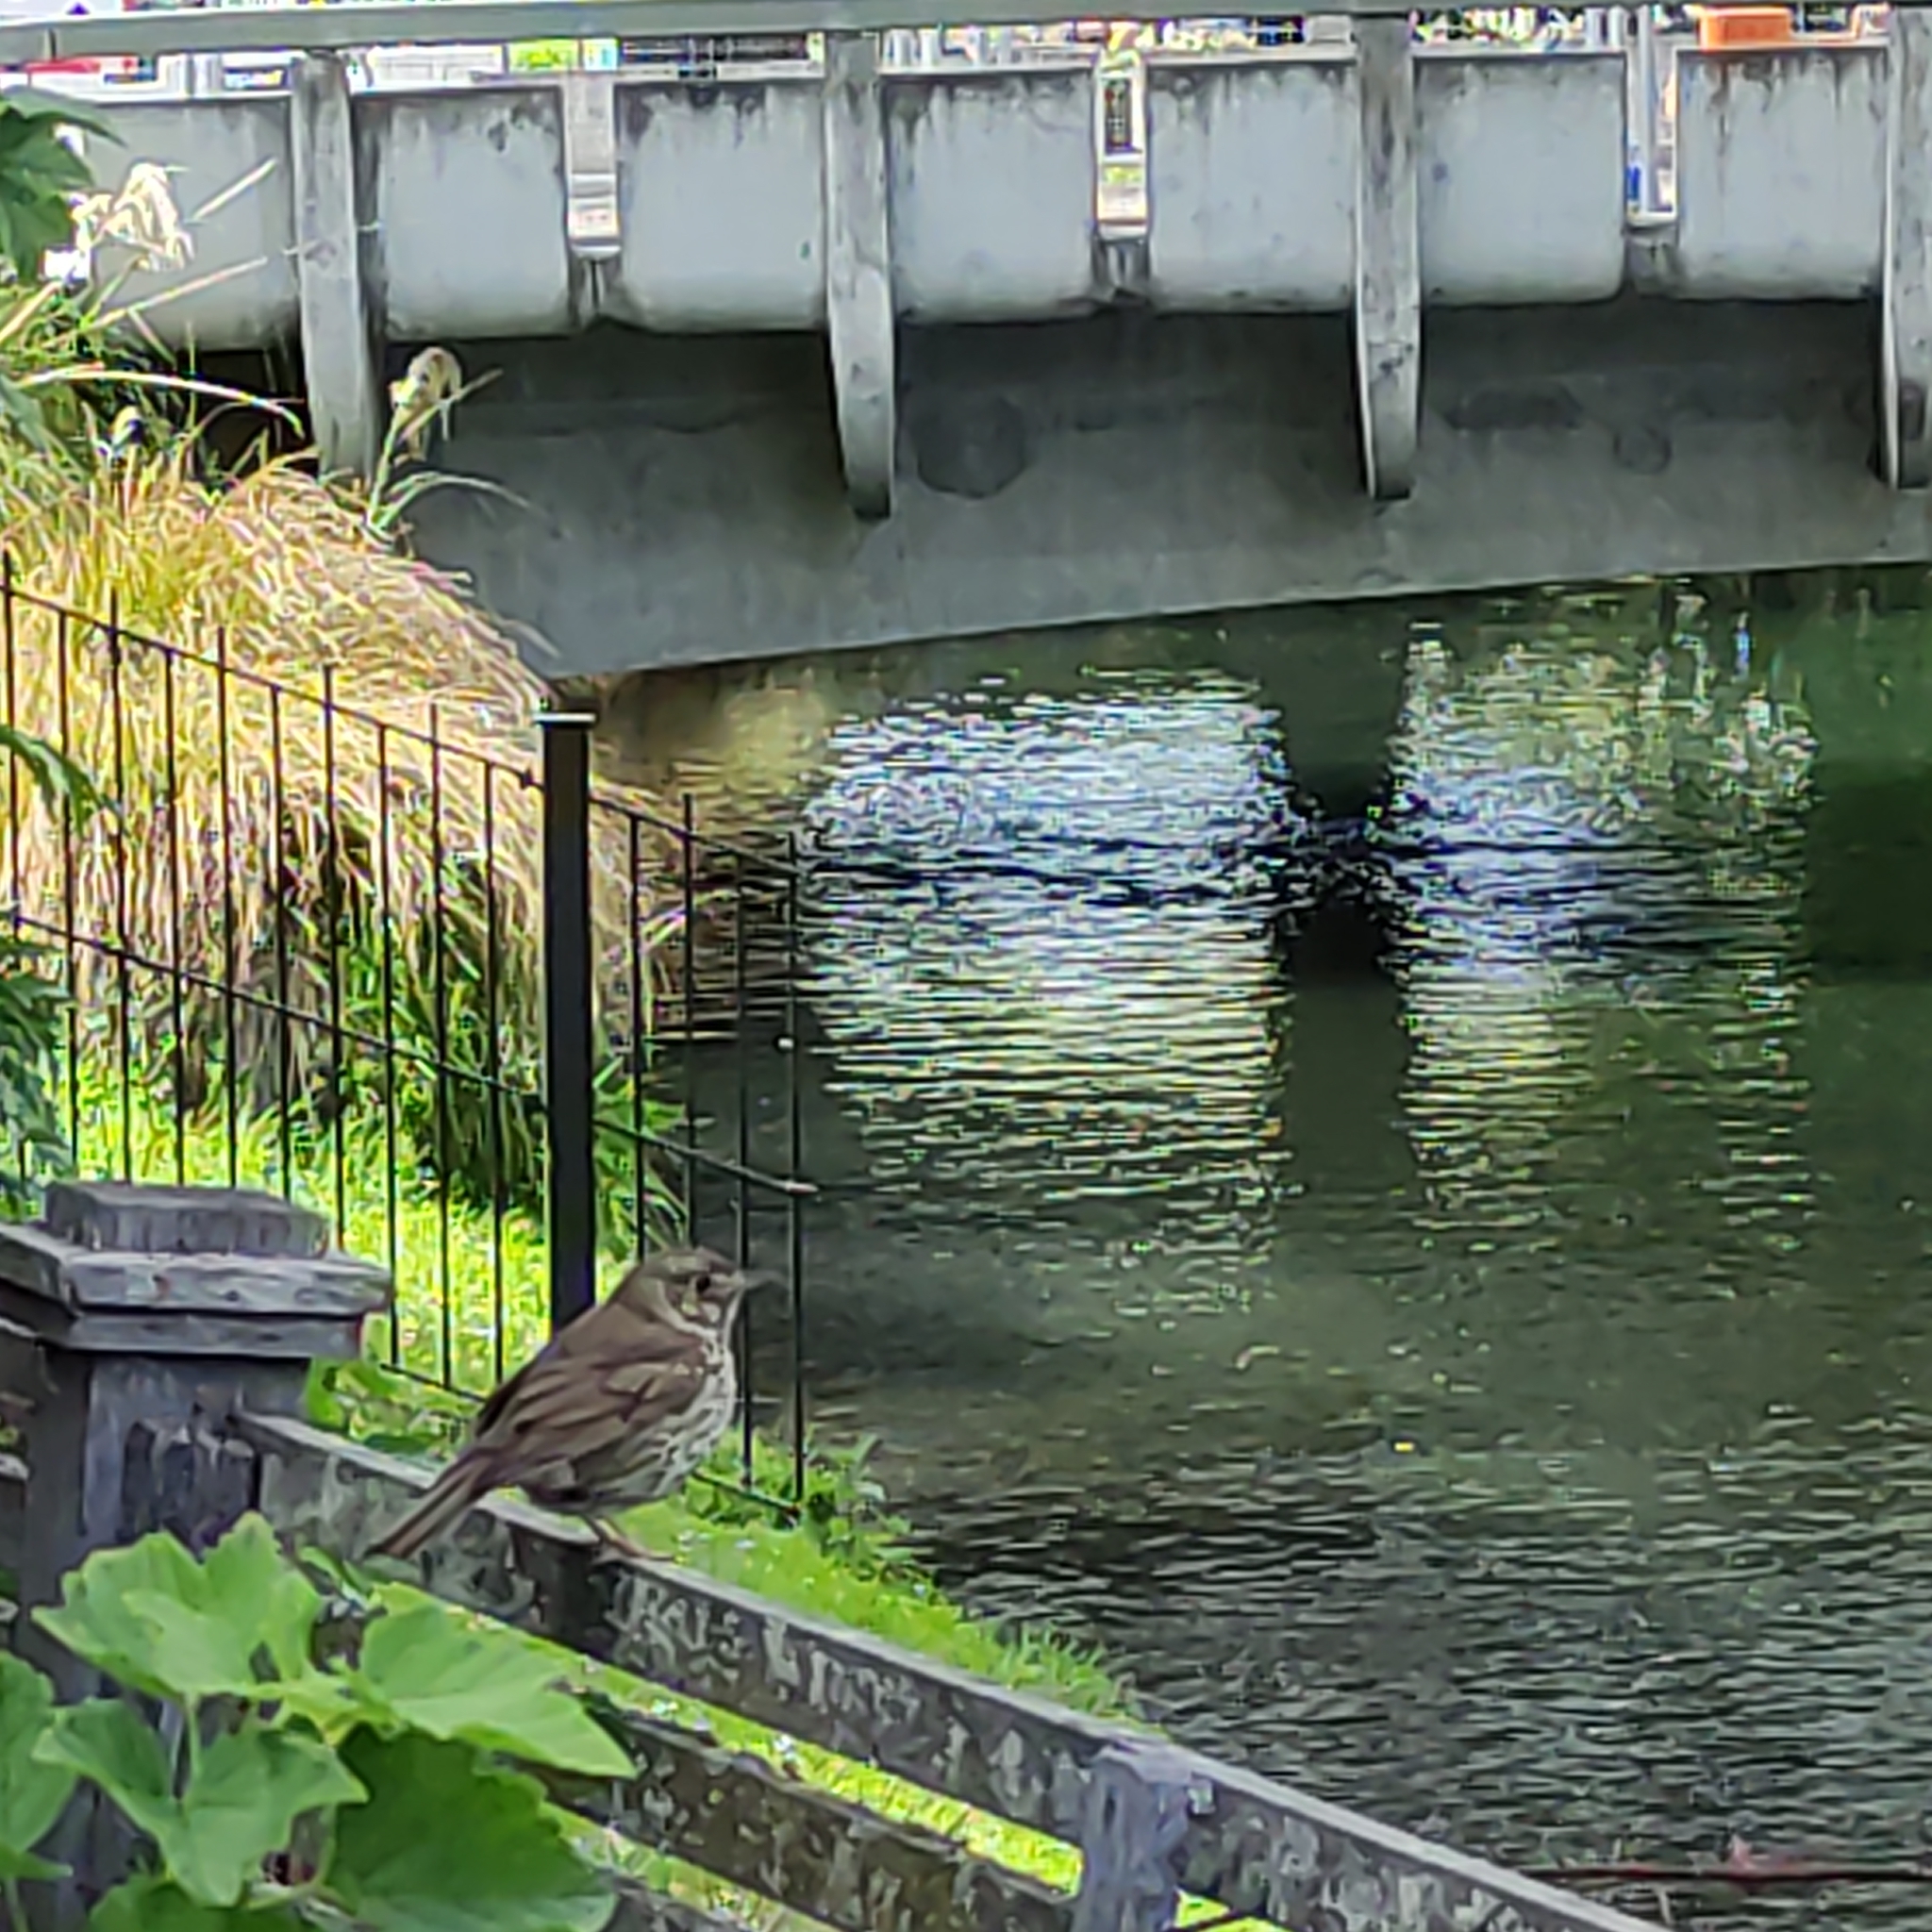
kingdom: Animalia
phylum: Chordata
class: Aves
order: Passeriformes
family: Turdidae
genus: Turdus
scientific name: Turdus philomelos
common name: Song thrush
